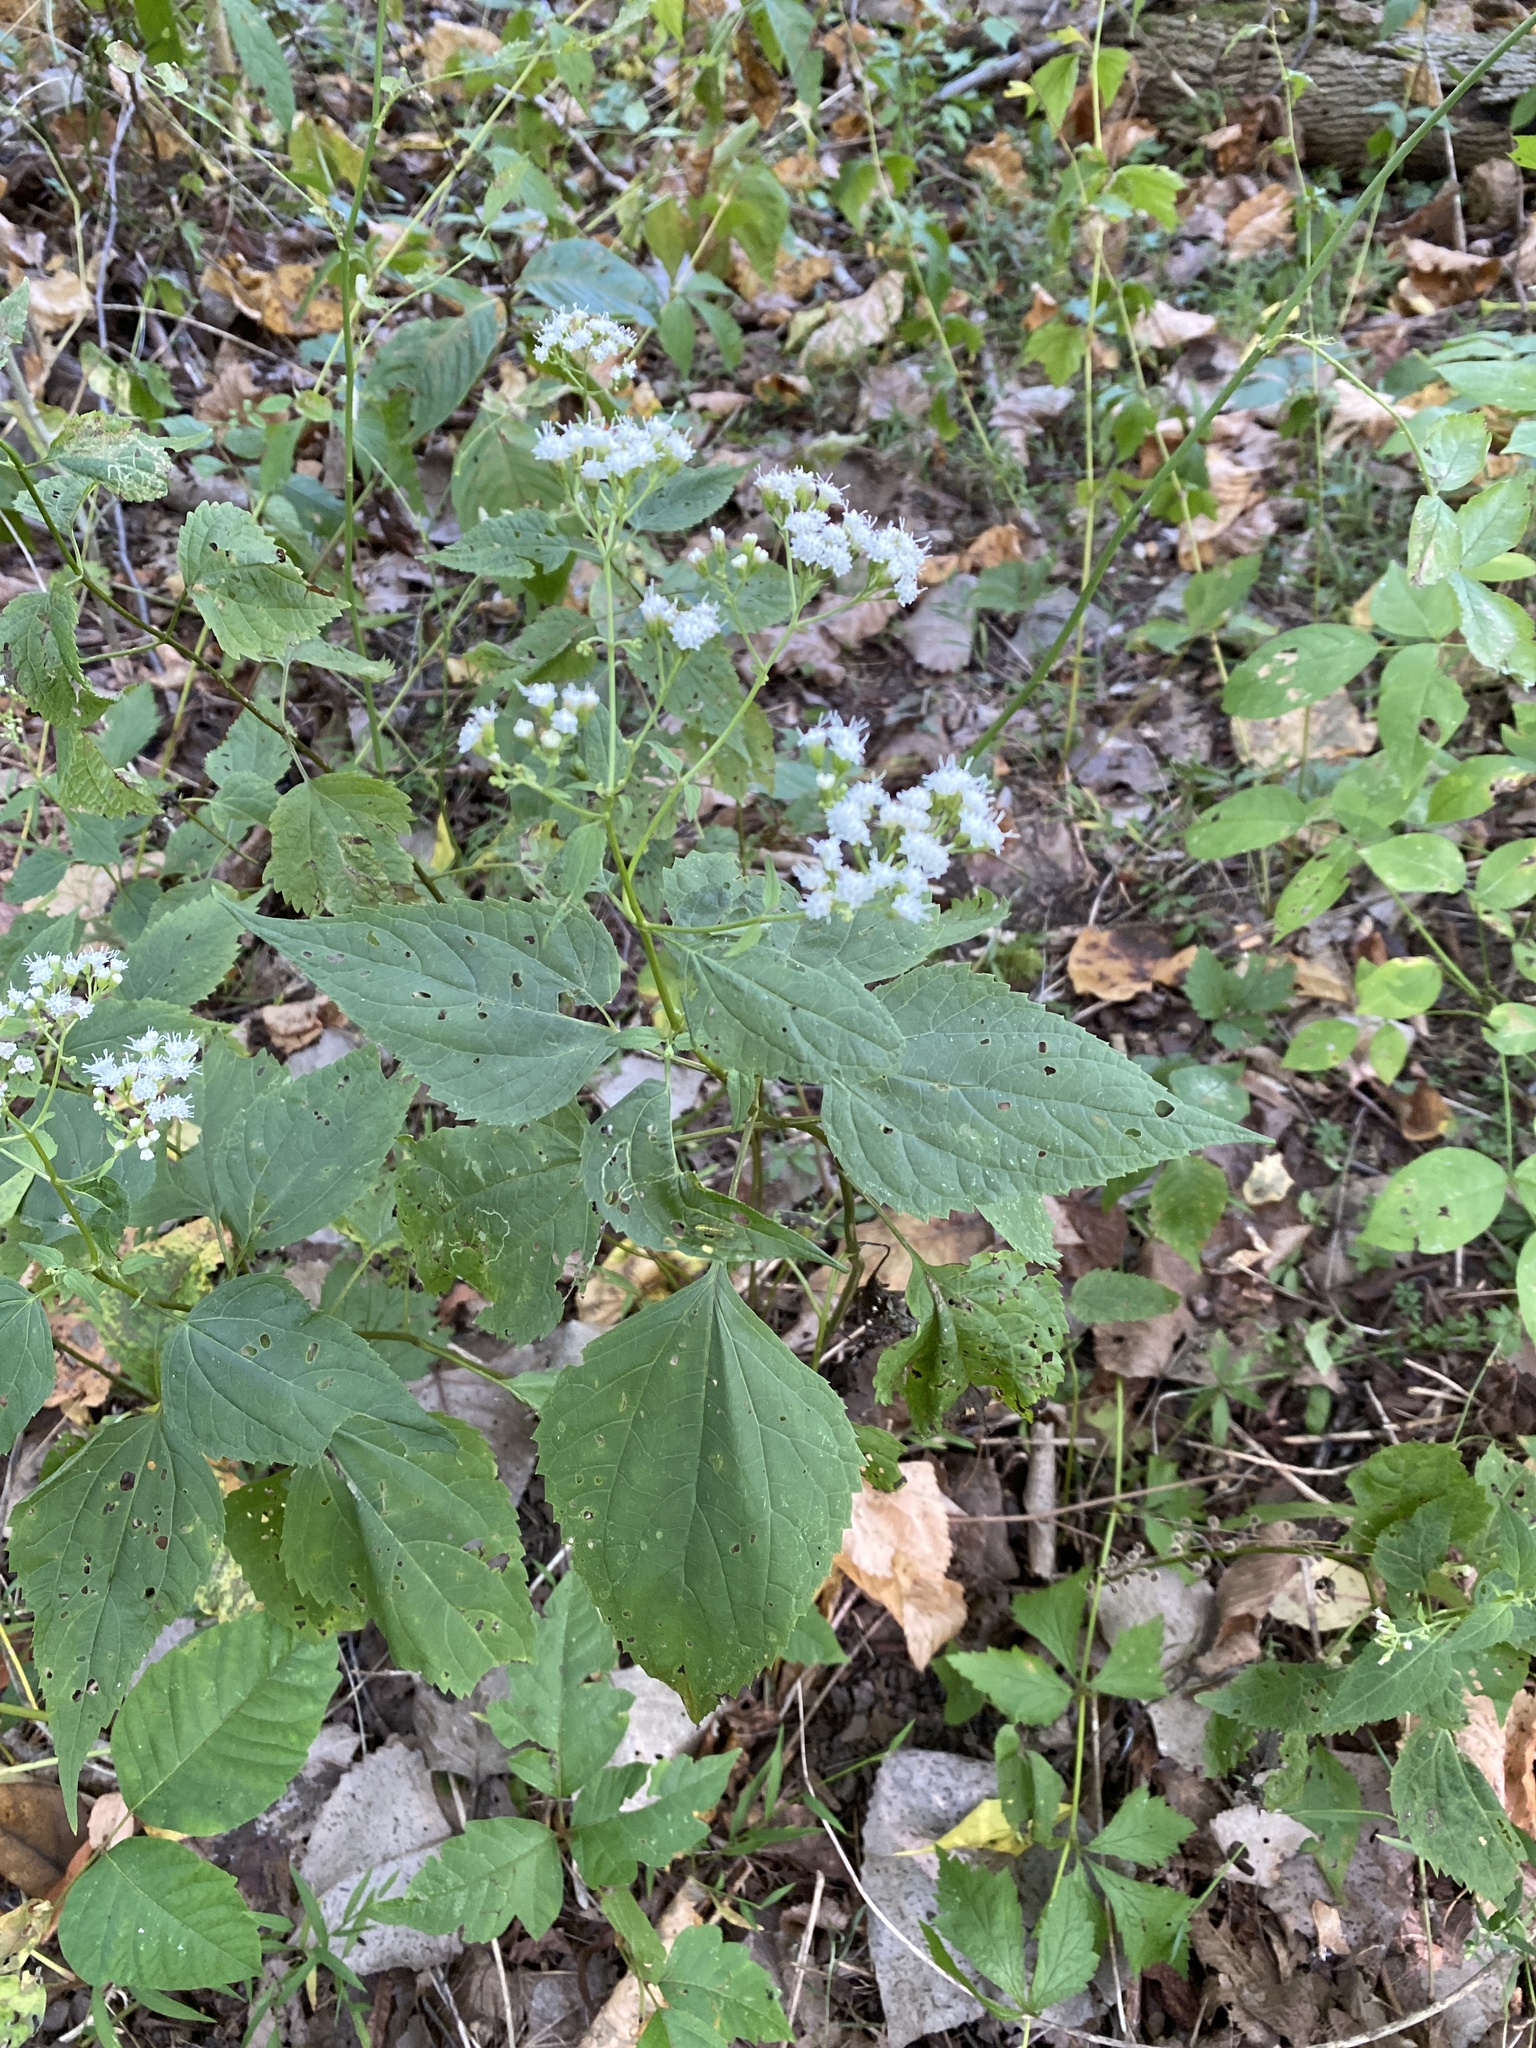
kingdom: Plantae
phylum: Tracheophyta
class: Magnoliopsida
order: Asterales
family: Asteraceae
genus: Ageratina
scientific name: Ageratina altissima
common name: White snakeroot
